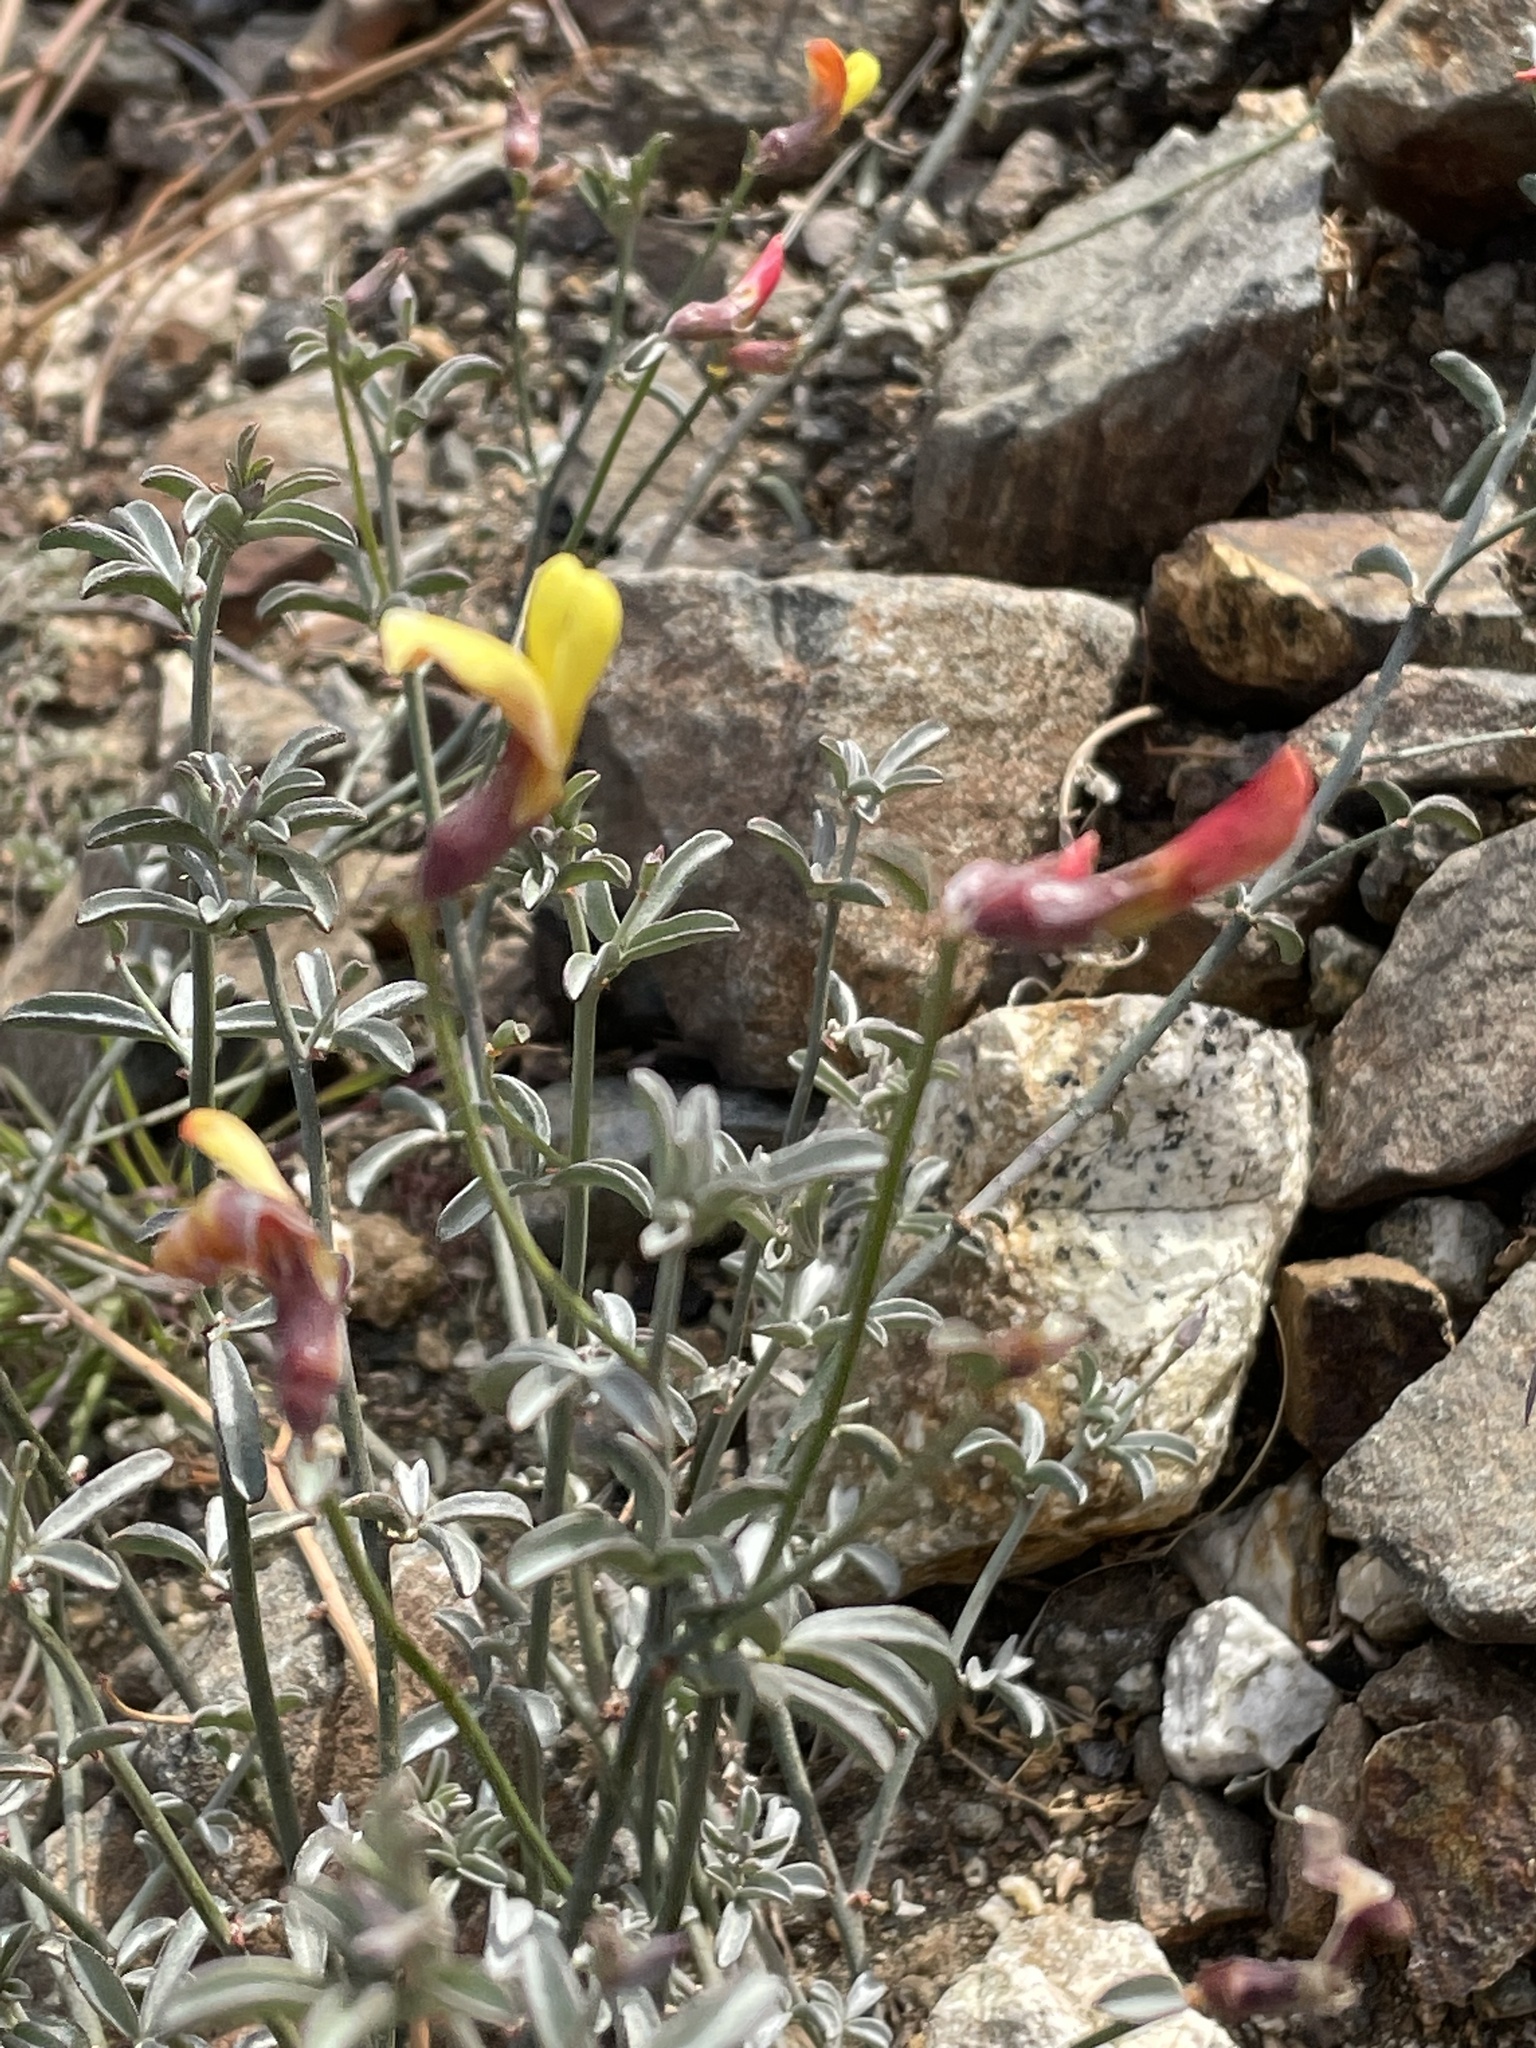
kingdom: Plantae
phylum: Tracheophyta
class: Magnoliopsida
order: Fabales
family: Fabaceae
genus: Acmispon
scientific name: Acmispon rigidus
